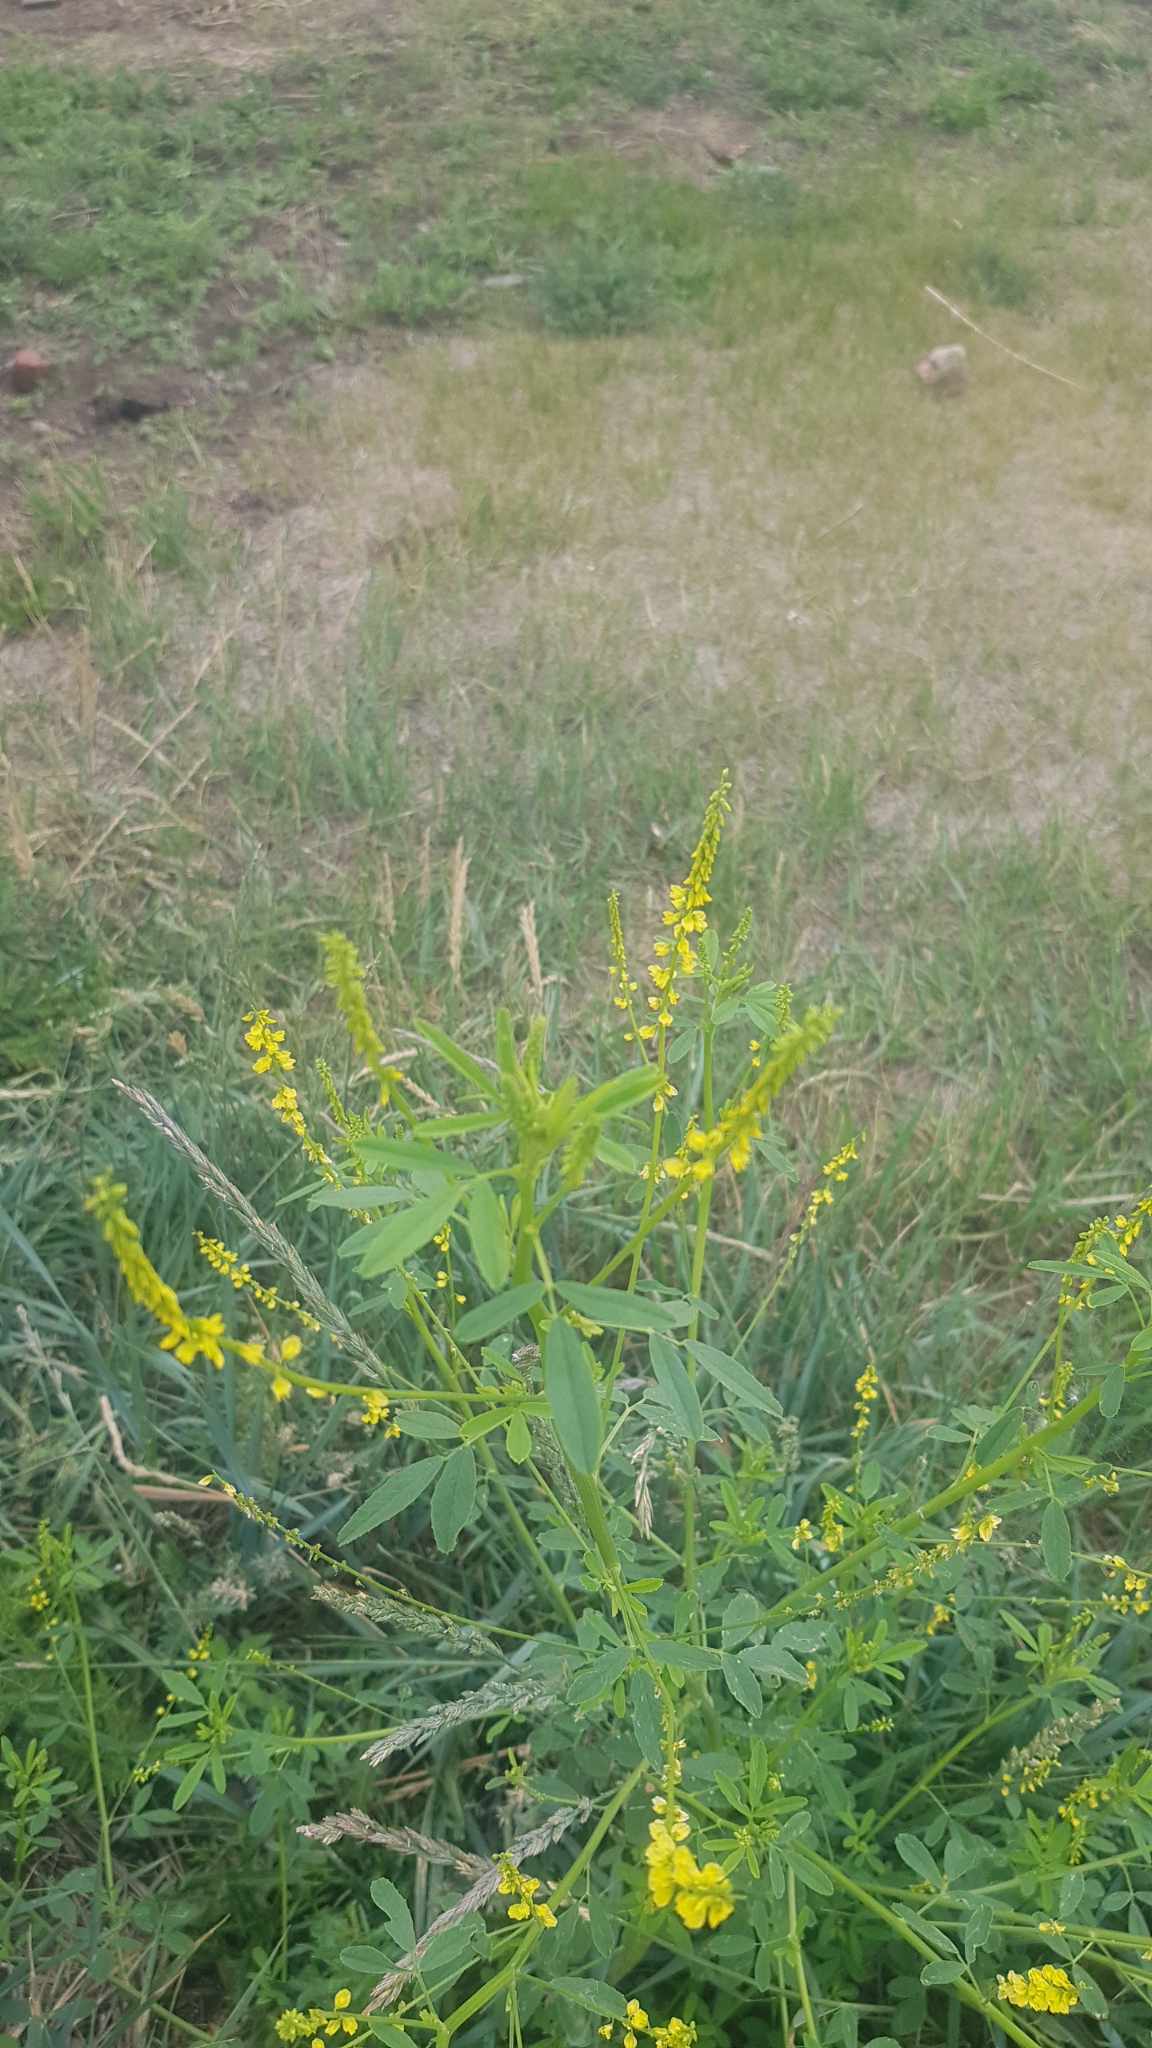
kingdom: Plantae
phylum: Tracheophyta
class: Magnoliopsida
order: Fabales
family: Fabaceae
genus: Melilotus
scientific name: Melilotus officinalis
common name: Sweetclover
